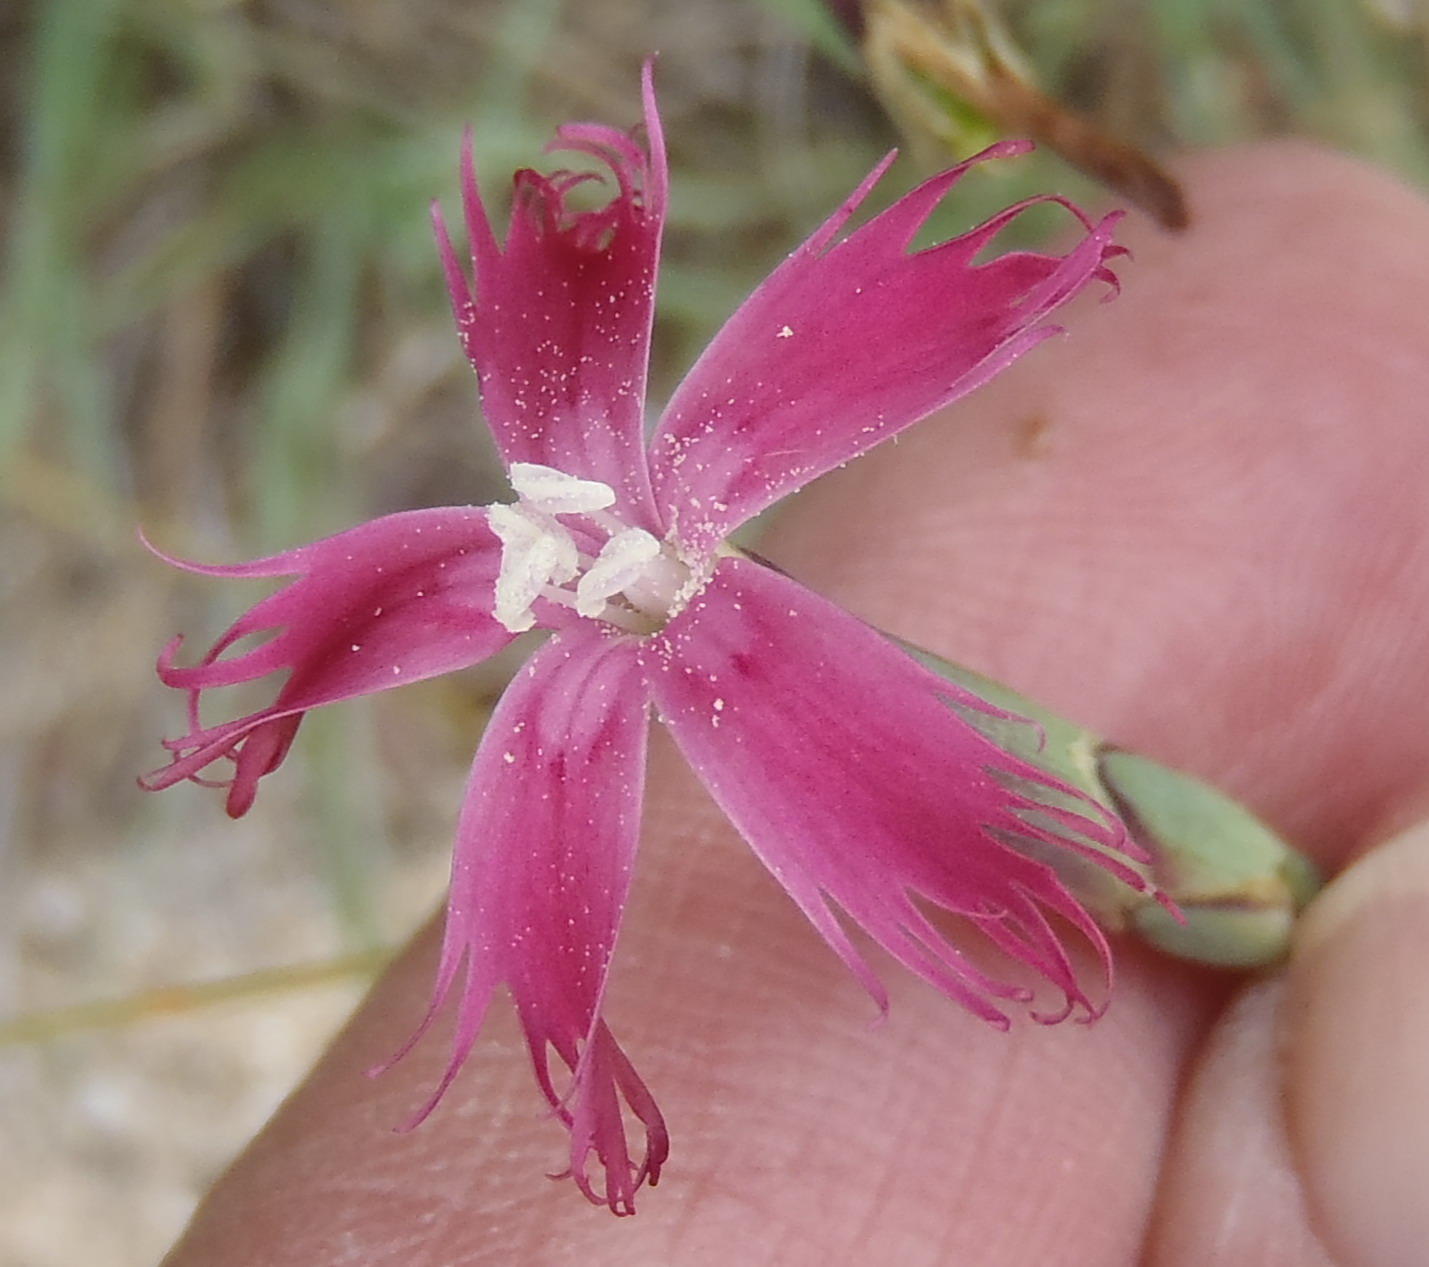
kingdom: Plantae
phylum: Tracheophyta
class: Magnoliopsida
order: Caryophyllales
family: Caryophyllaceae
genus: Dianthus
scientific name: Dianthus bolusii
